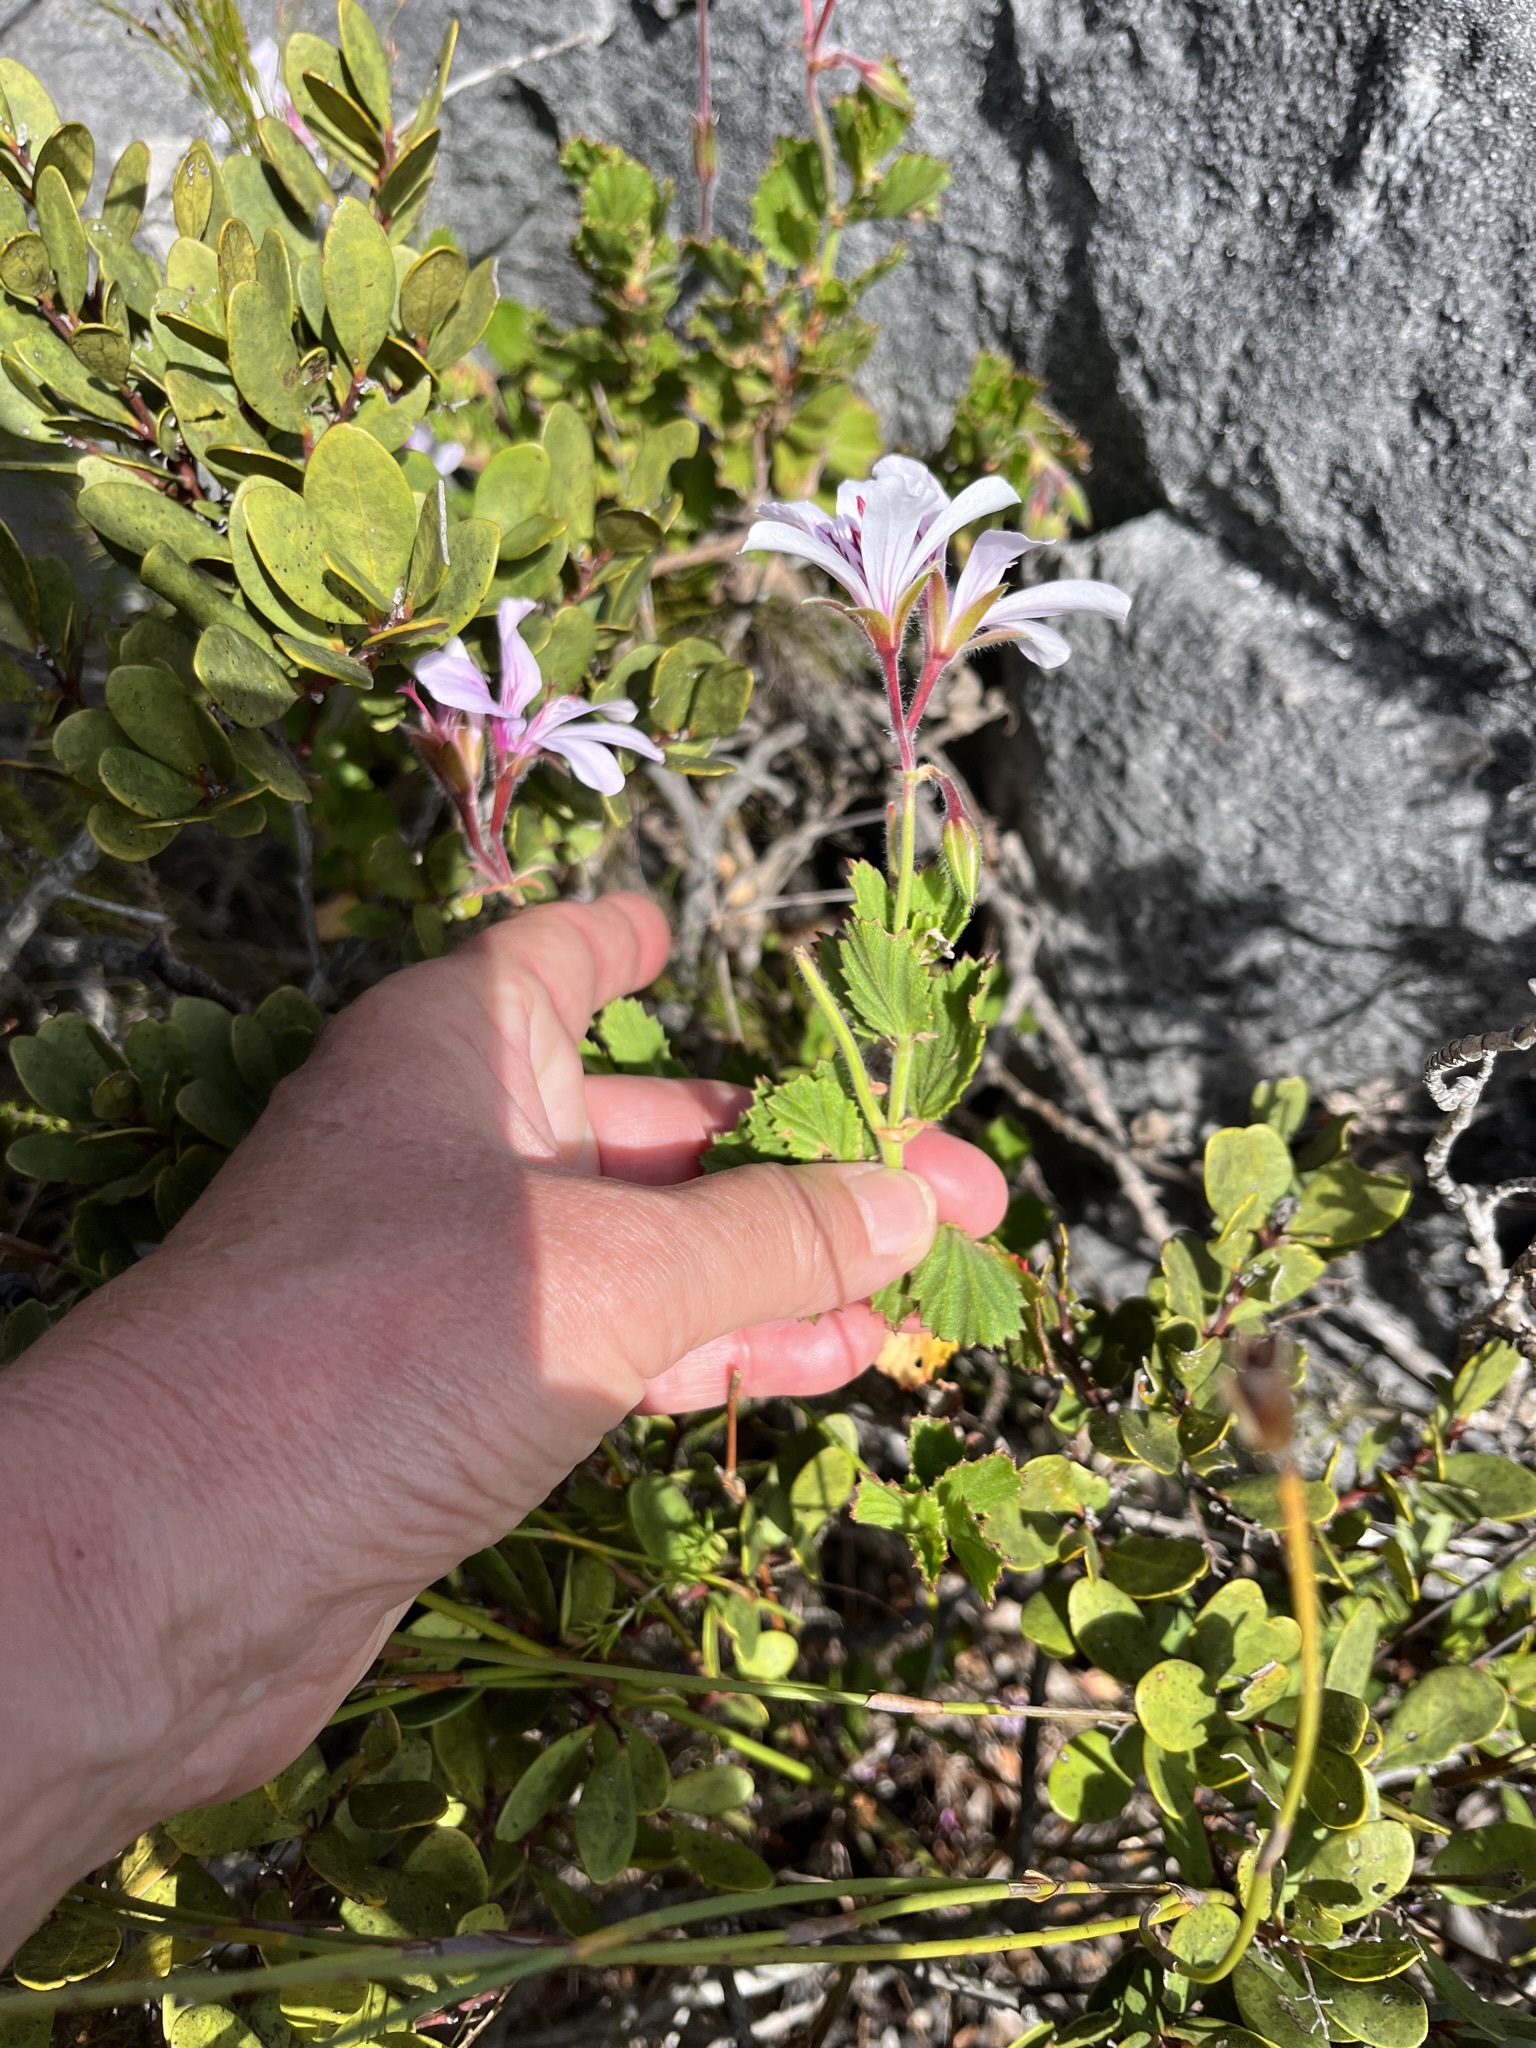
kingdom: Plantae
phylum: Tracheophyta
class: Magnoliopsida
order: Geraniales
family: Geraniaceae
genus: Pelargonium
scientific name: Pelargonium betulinum
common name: Birch-leaf pelargonium
